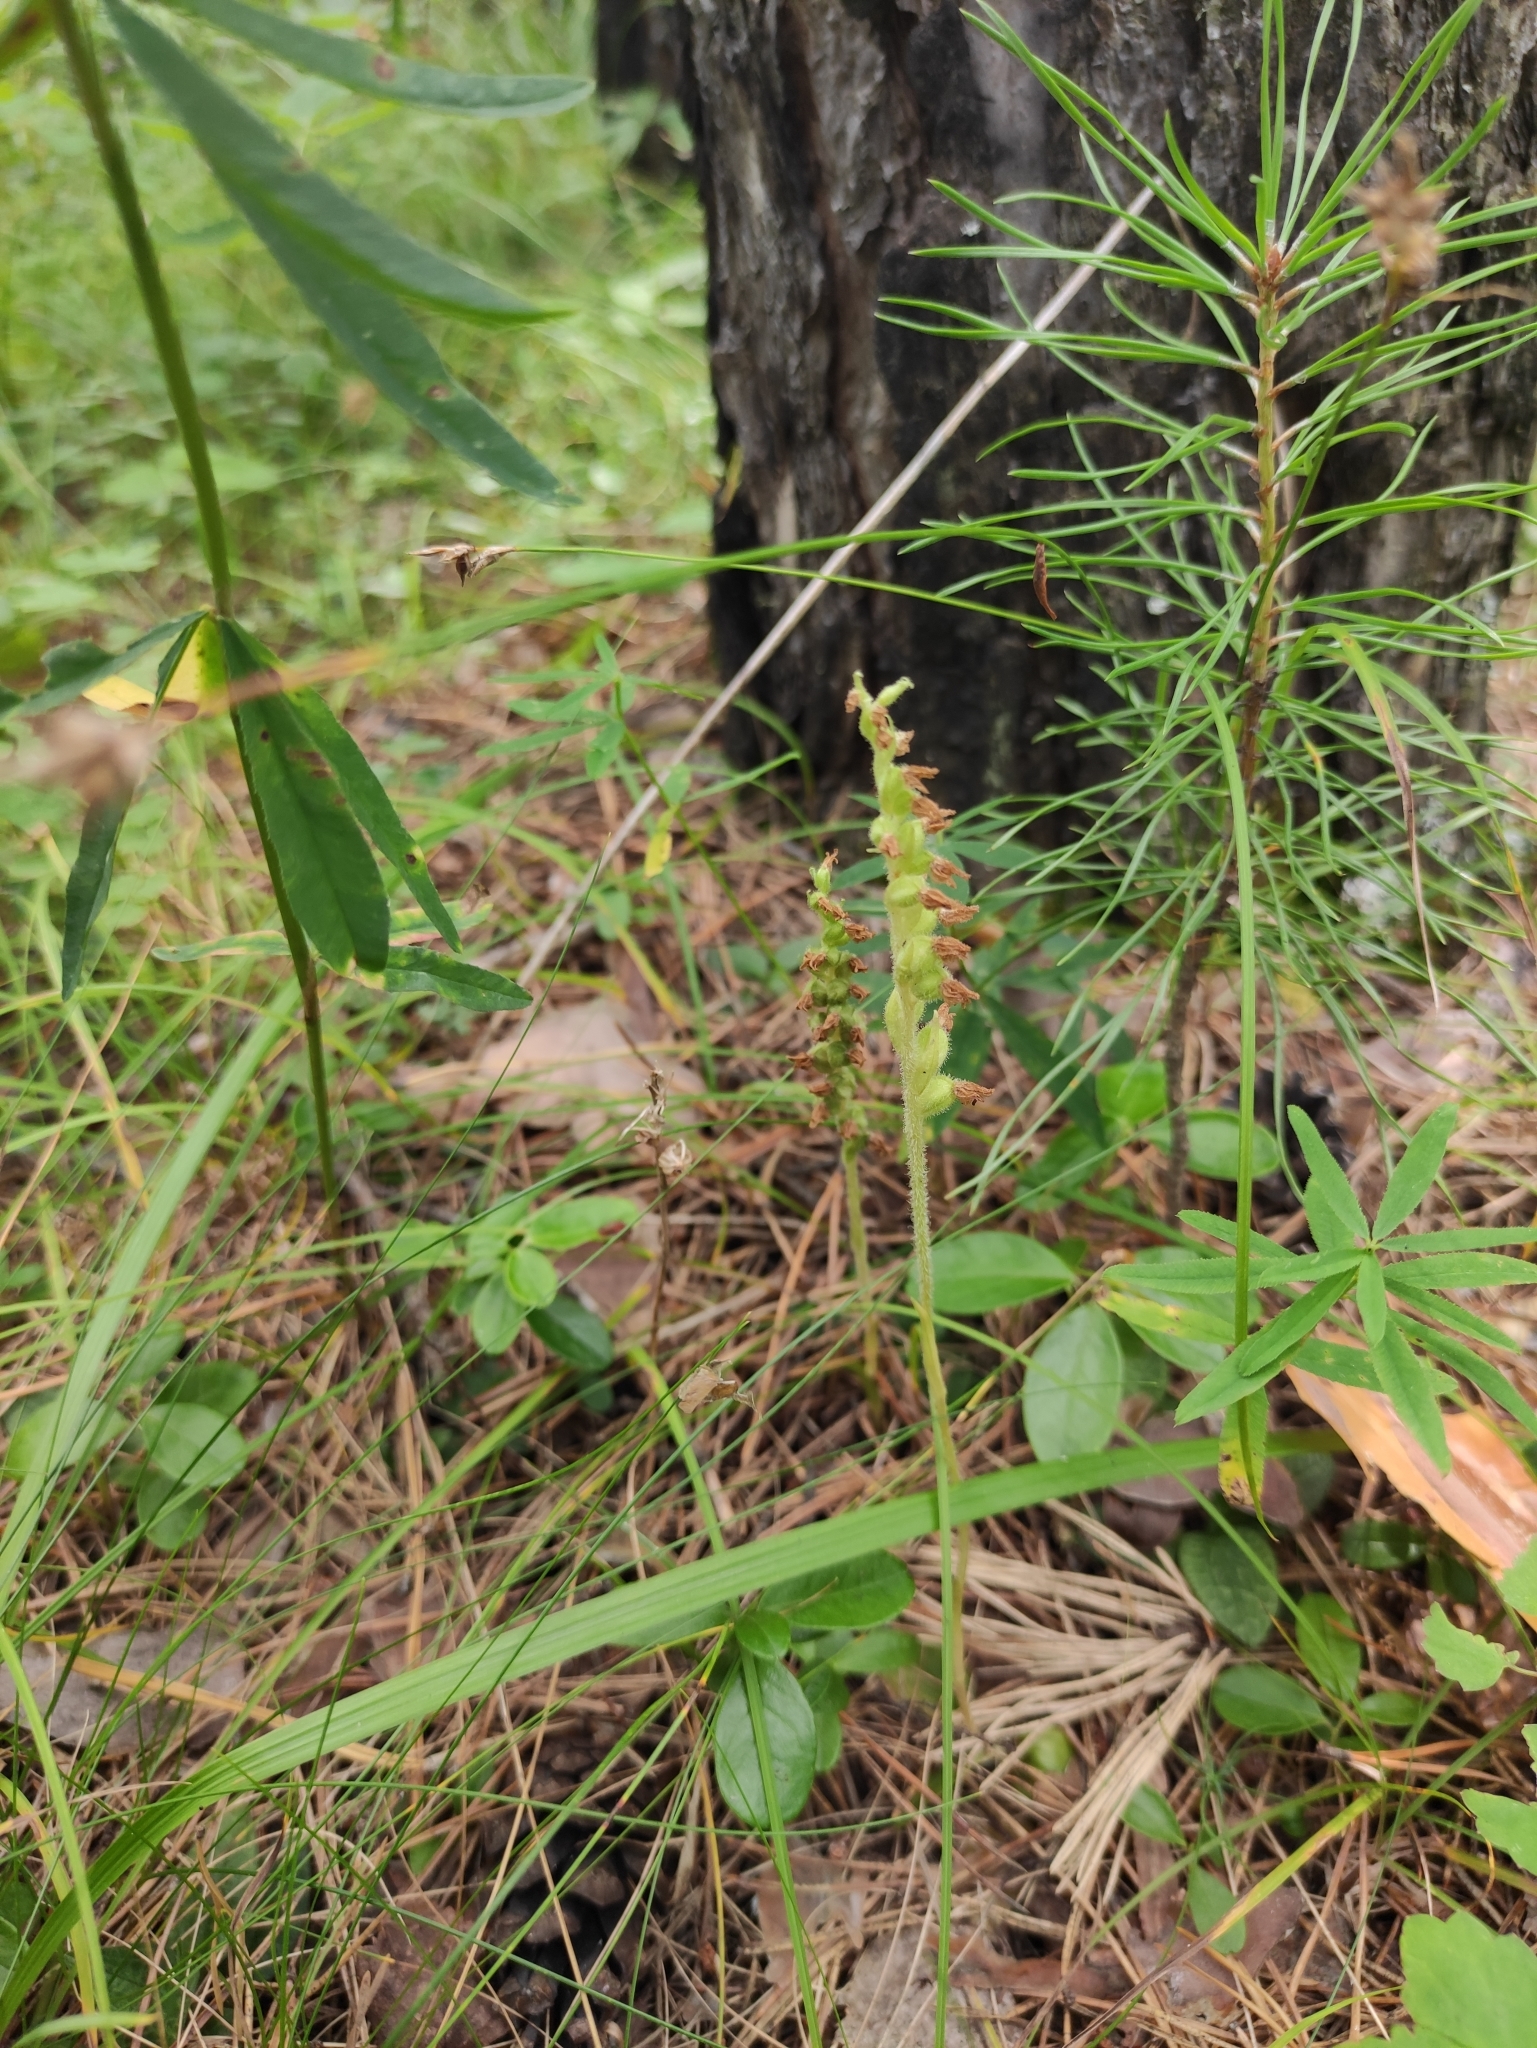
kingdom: Plantae
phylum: Tracheophyta
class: Liliopsida
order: Asparagales
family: Orchidaceae
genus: Goodyera
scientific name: Goodyera repens
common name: Creeping lady's-tresses
